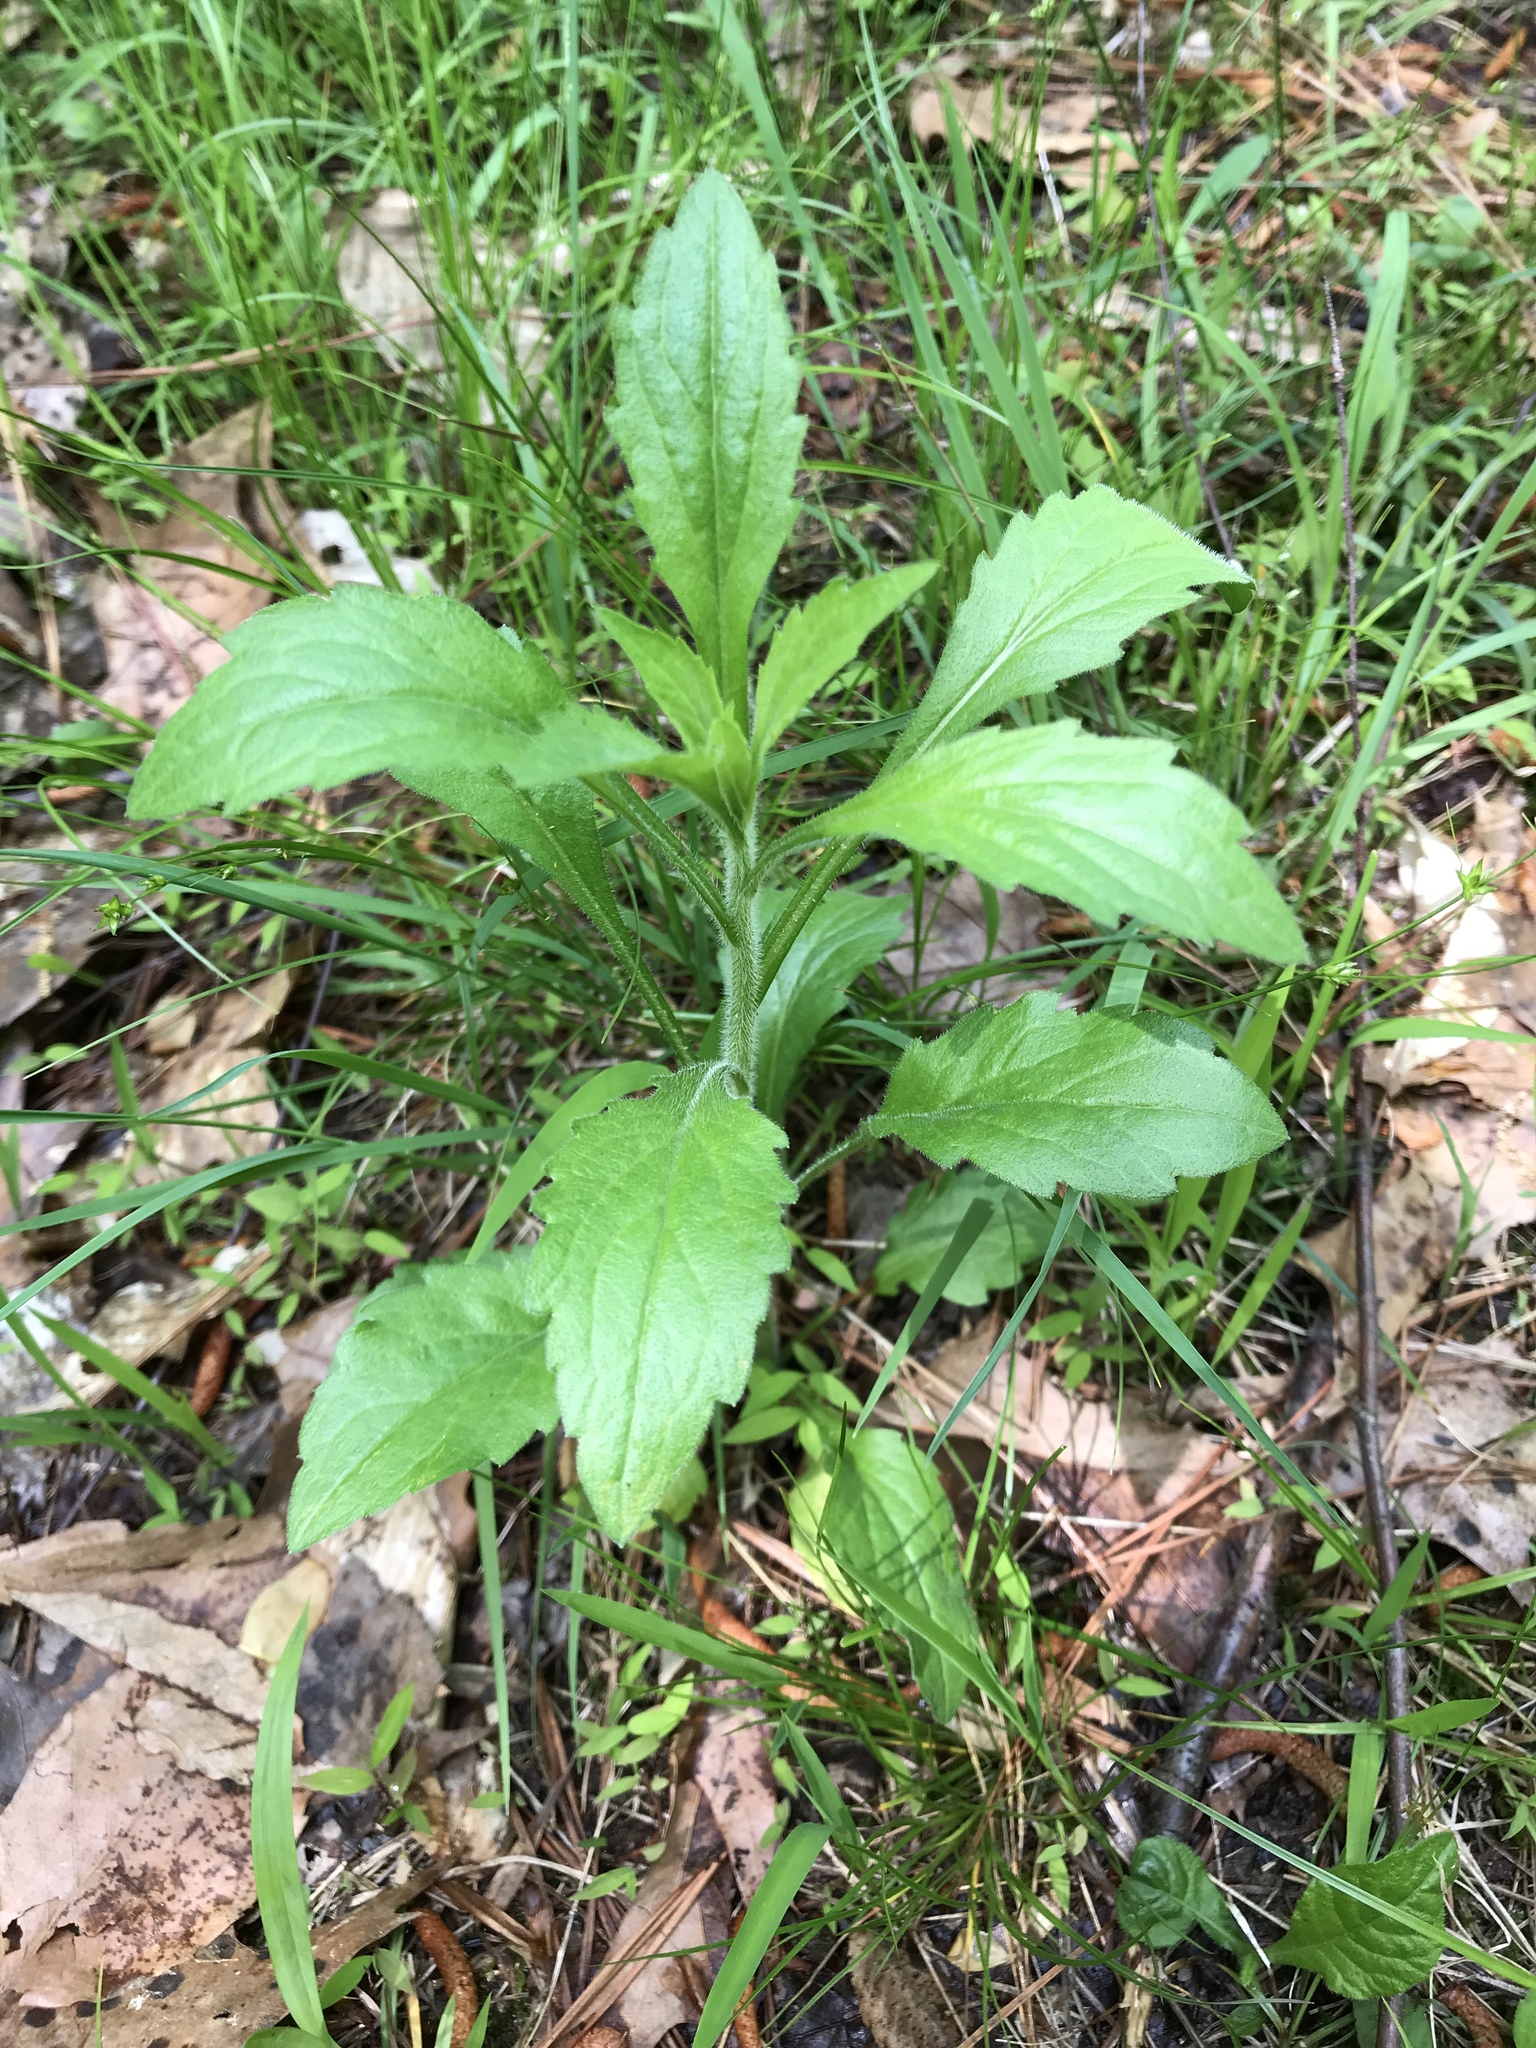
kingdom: Plantae
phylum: Tracheophyta
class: Magnoliopsida
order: Asterales
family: Asteraceae
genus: Erigeron
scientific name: Erigeron annuus
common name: Tall fleabane
